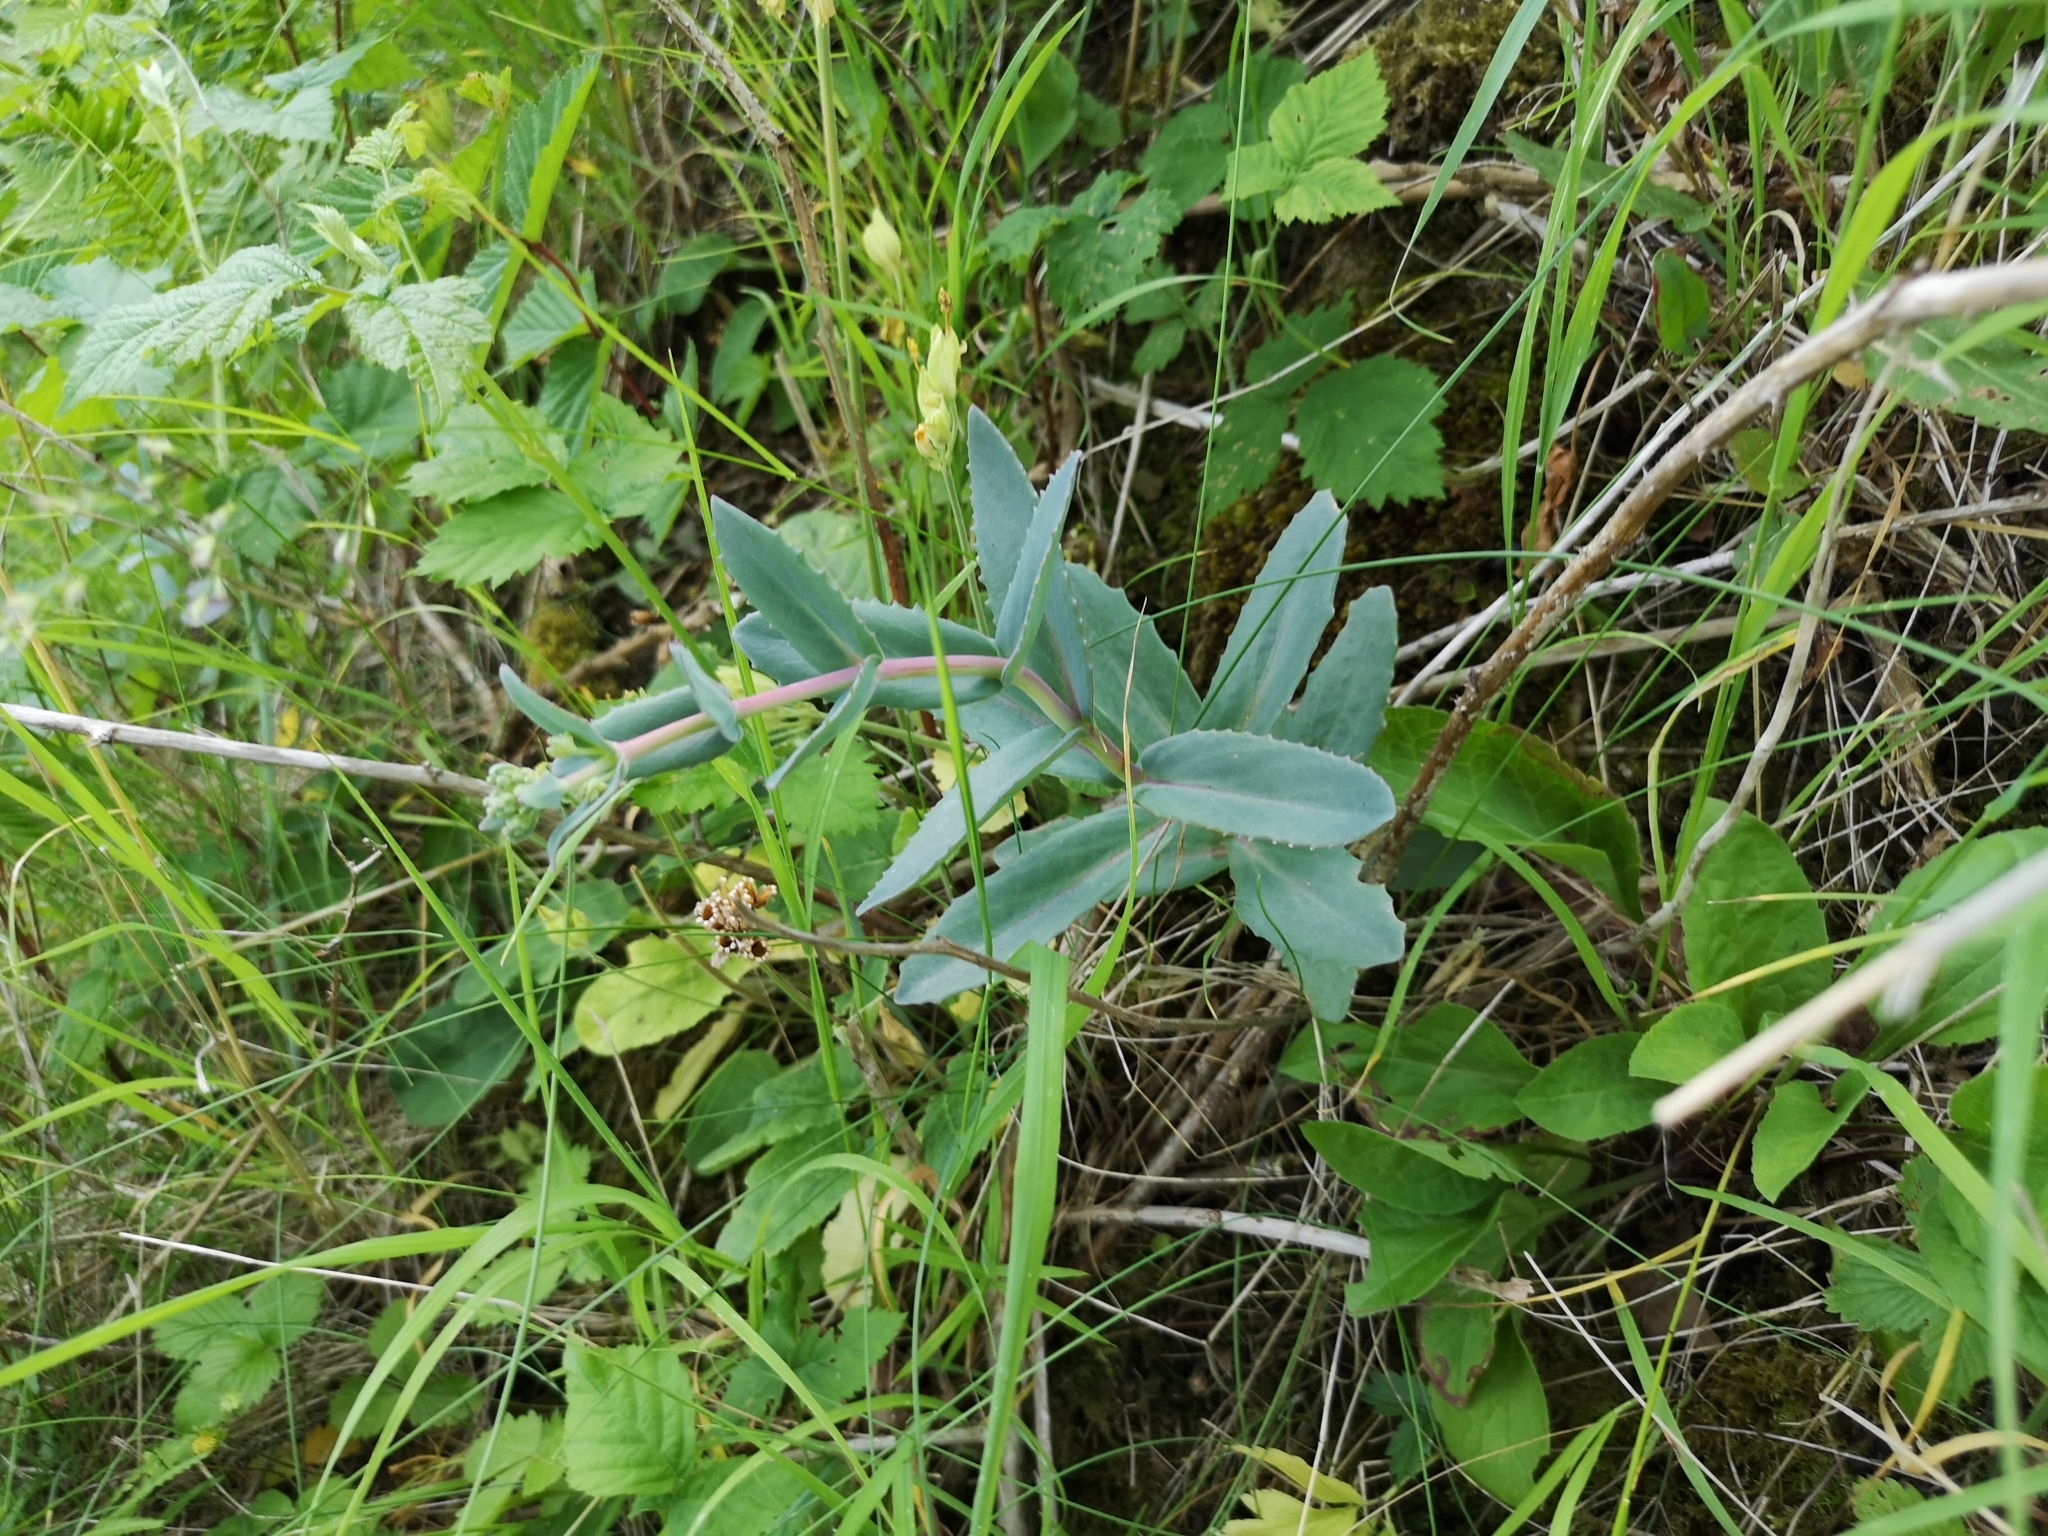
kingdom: Plantae
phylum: Tracheophyta
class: Magnoliopsida
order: Saxifragales
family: Crassulaceae
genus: Hylotelephium
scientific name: Hylotelephium maximum
